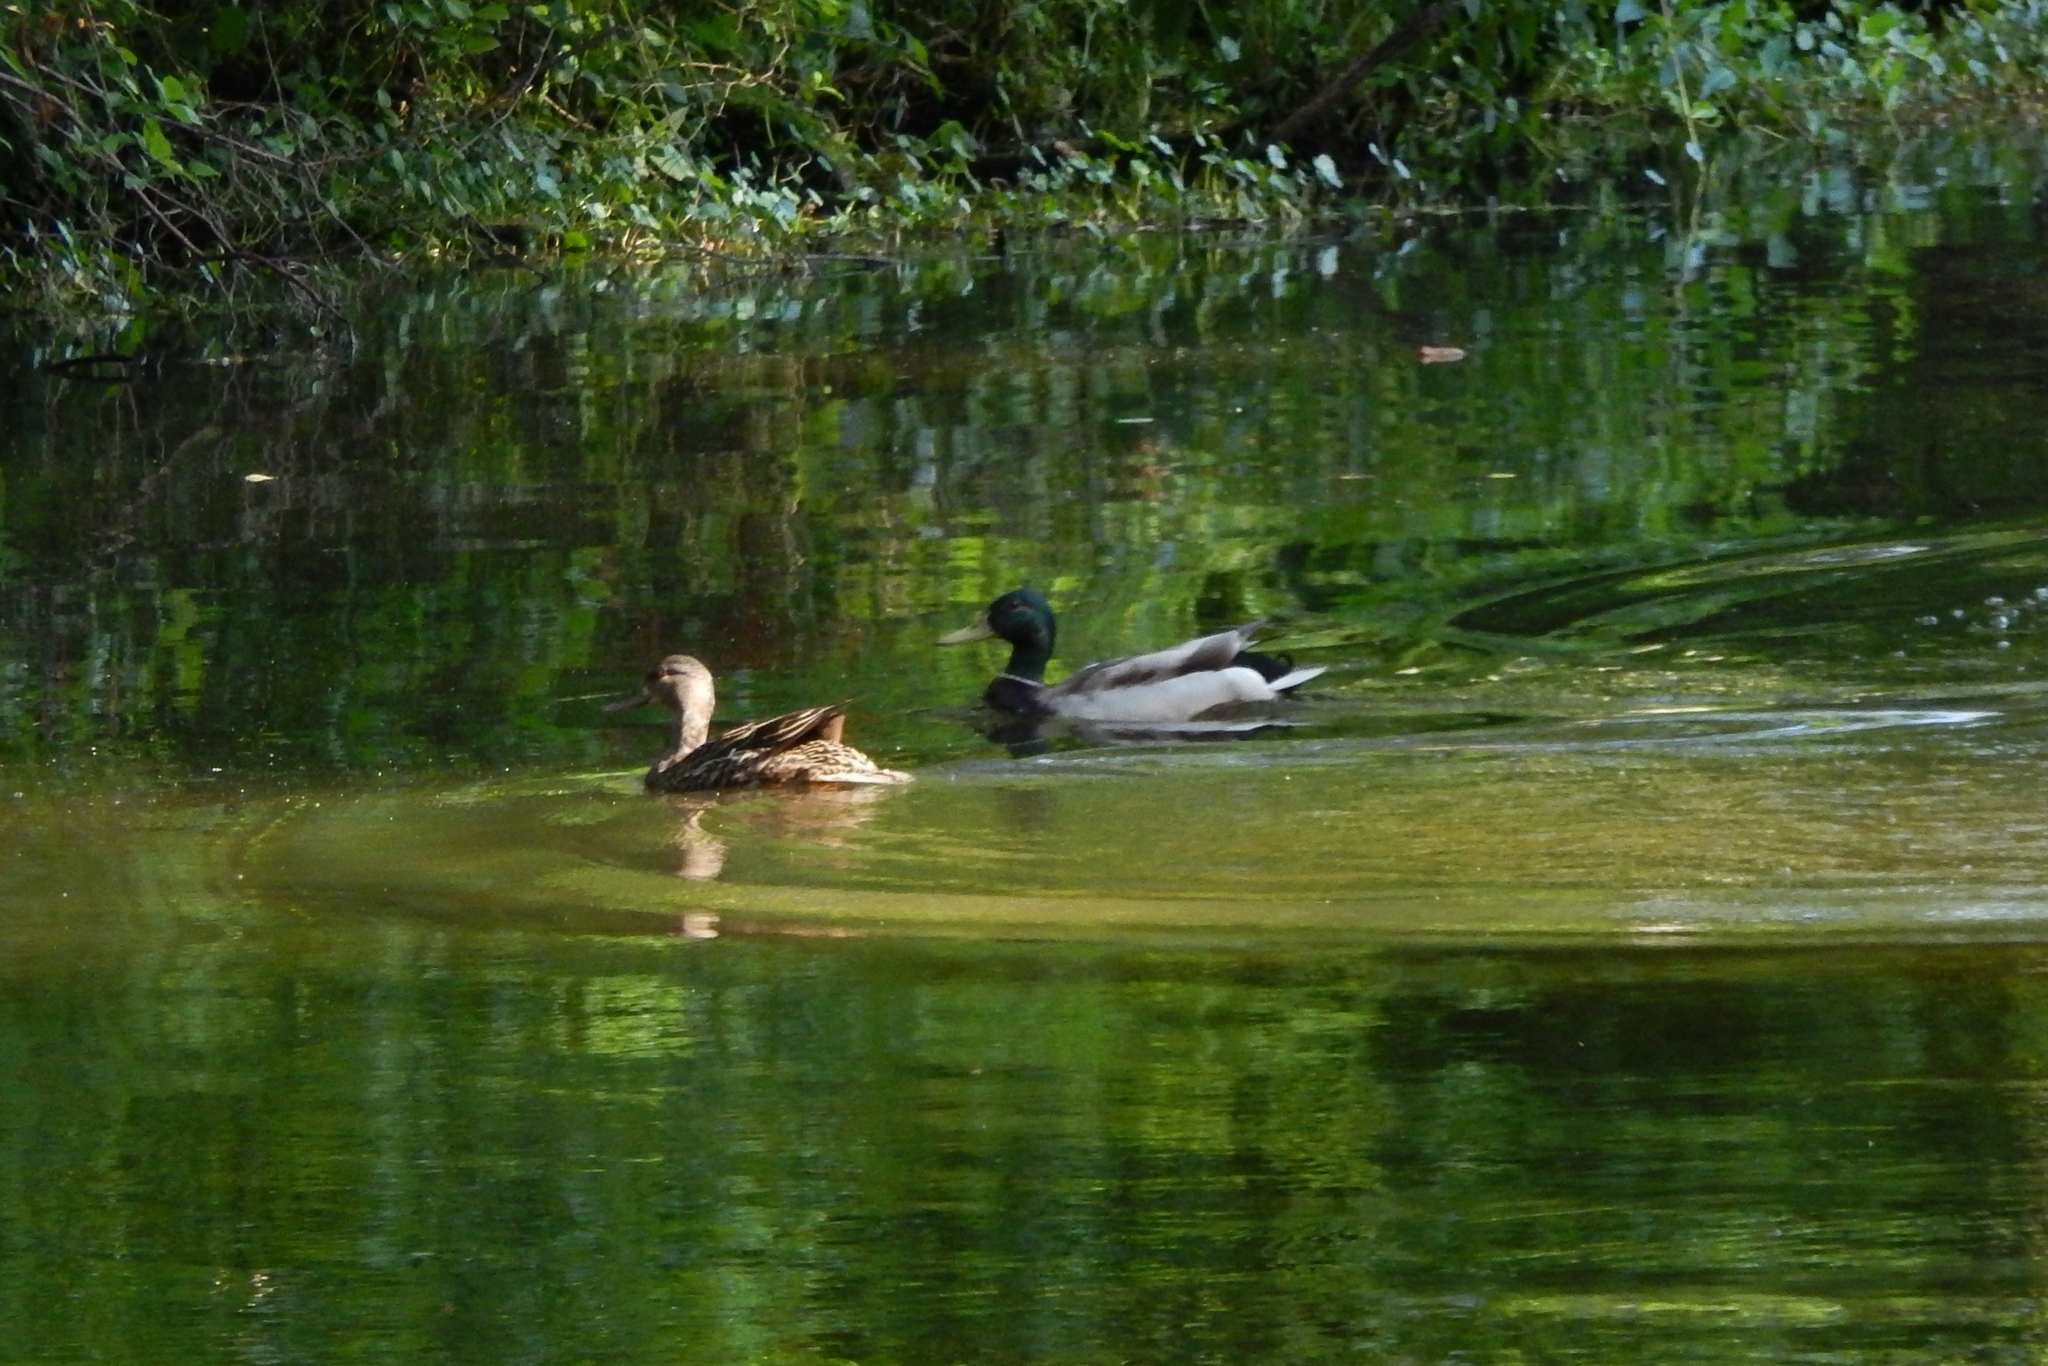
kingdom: Animalia
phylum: Chordata
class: Aves
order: Anseriformes
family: Anatidae
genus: Anas
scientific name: Anas platyrhynchos
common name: Mallard
